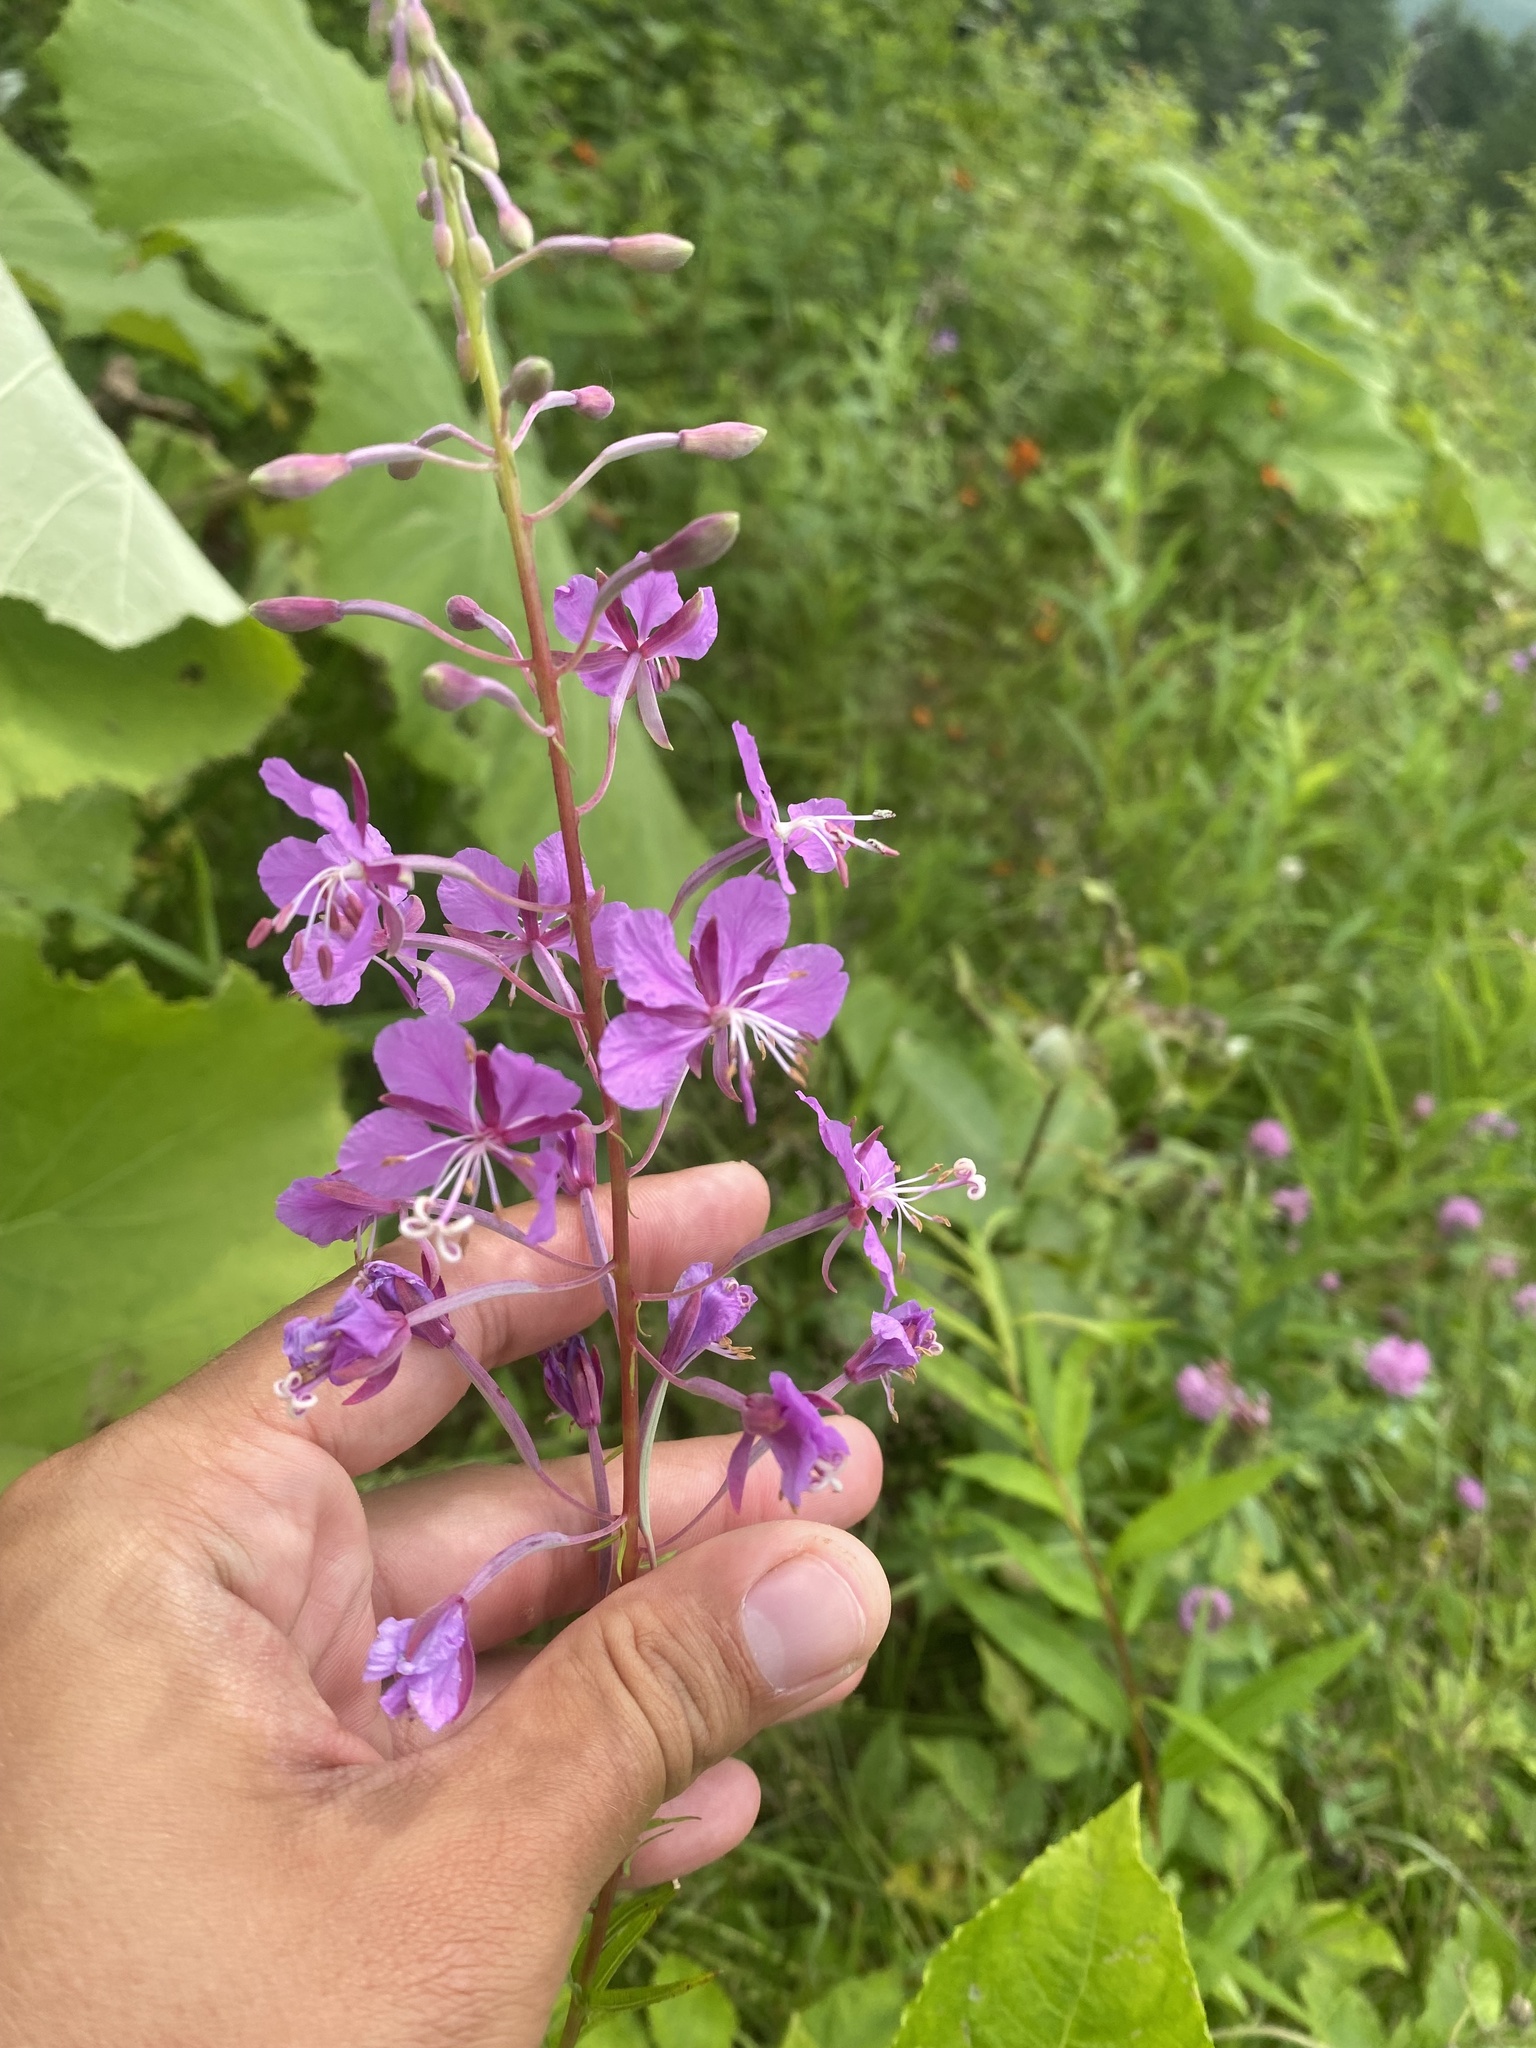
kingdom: Plantae
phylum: Tracheophyta
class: Magnoliopsida
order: Myrtales
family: Onagraceae
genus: Chamaenerion
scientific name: Chamaenerion angustifolium
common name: Fireweed
